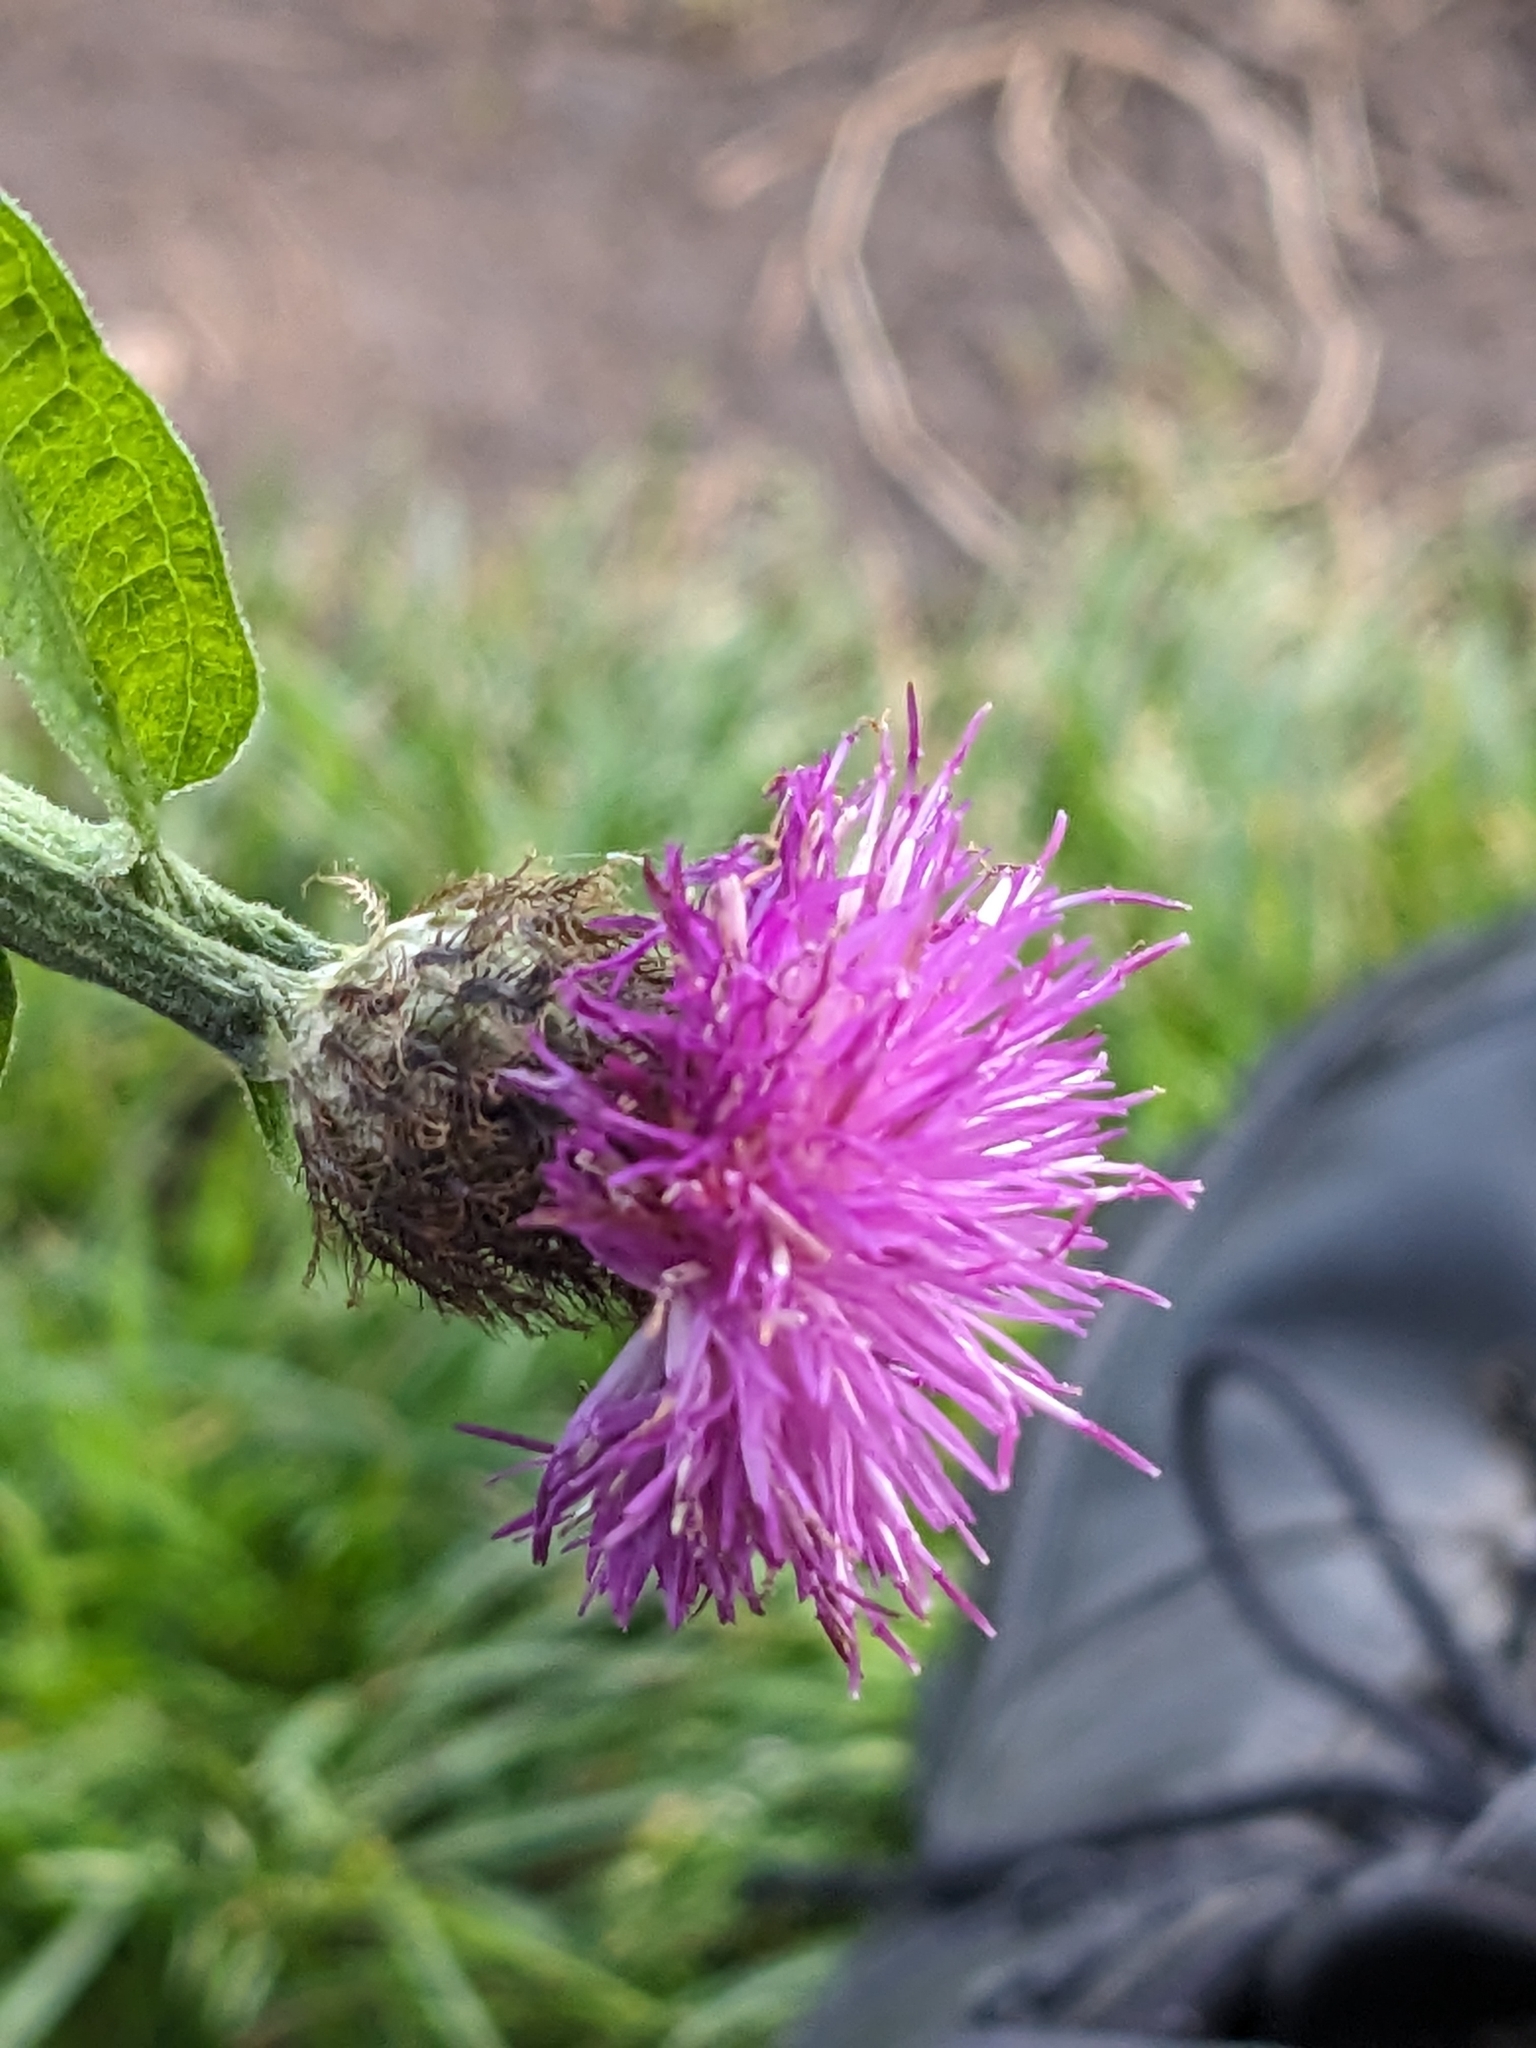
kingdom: Plantae
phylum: Tracheophyta
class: Magnoliopsida
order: Asterales
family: Asteraceae
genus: Centaurea
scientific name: Centaurea nigra
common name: Lesser knapweed
